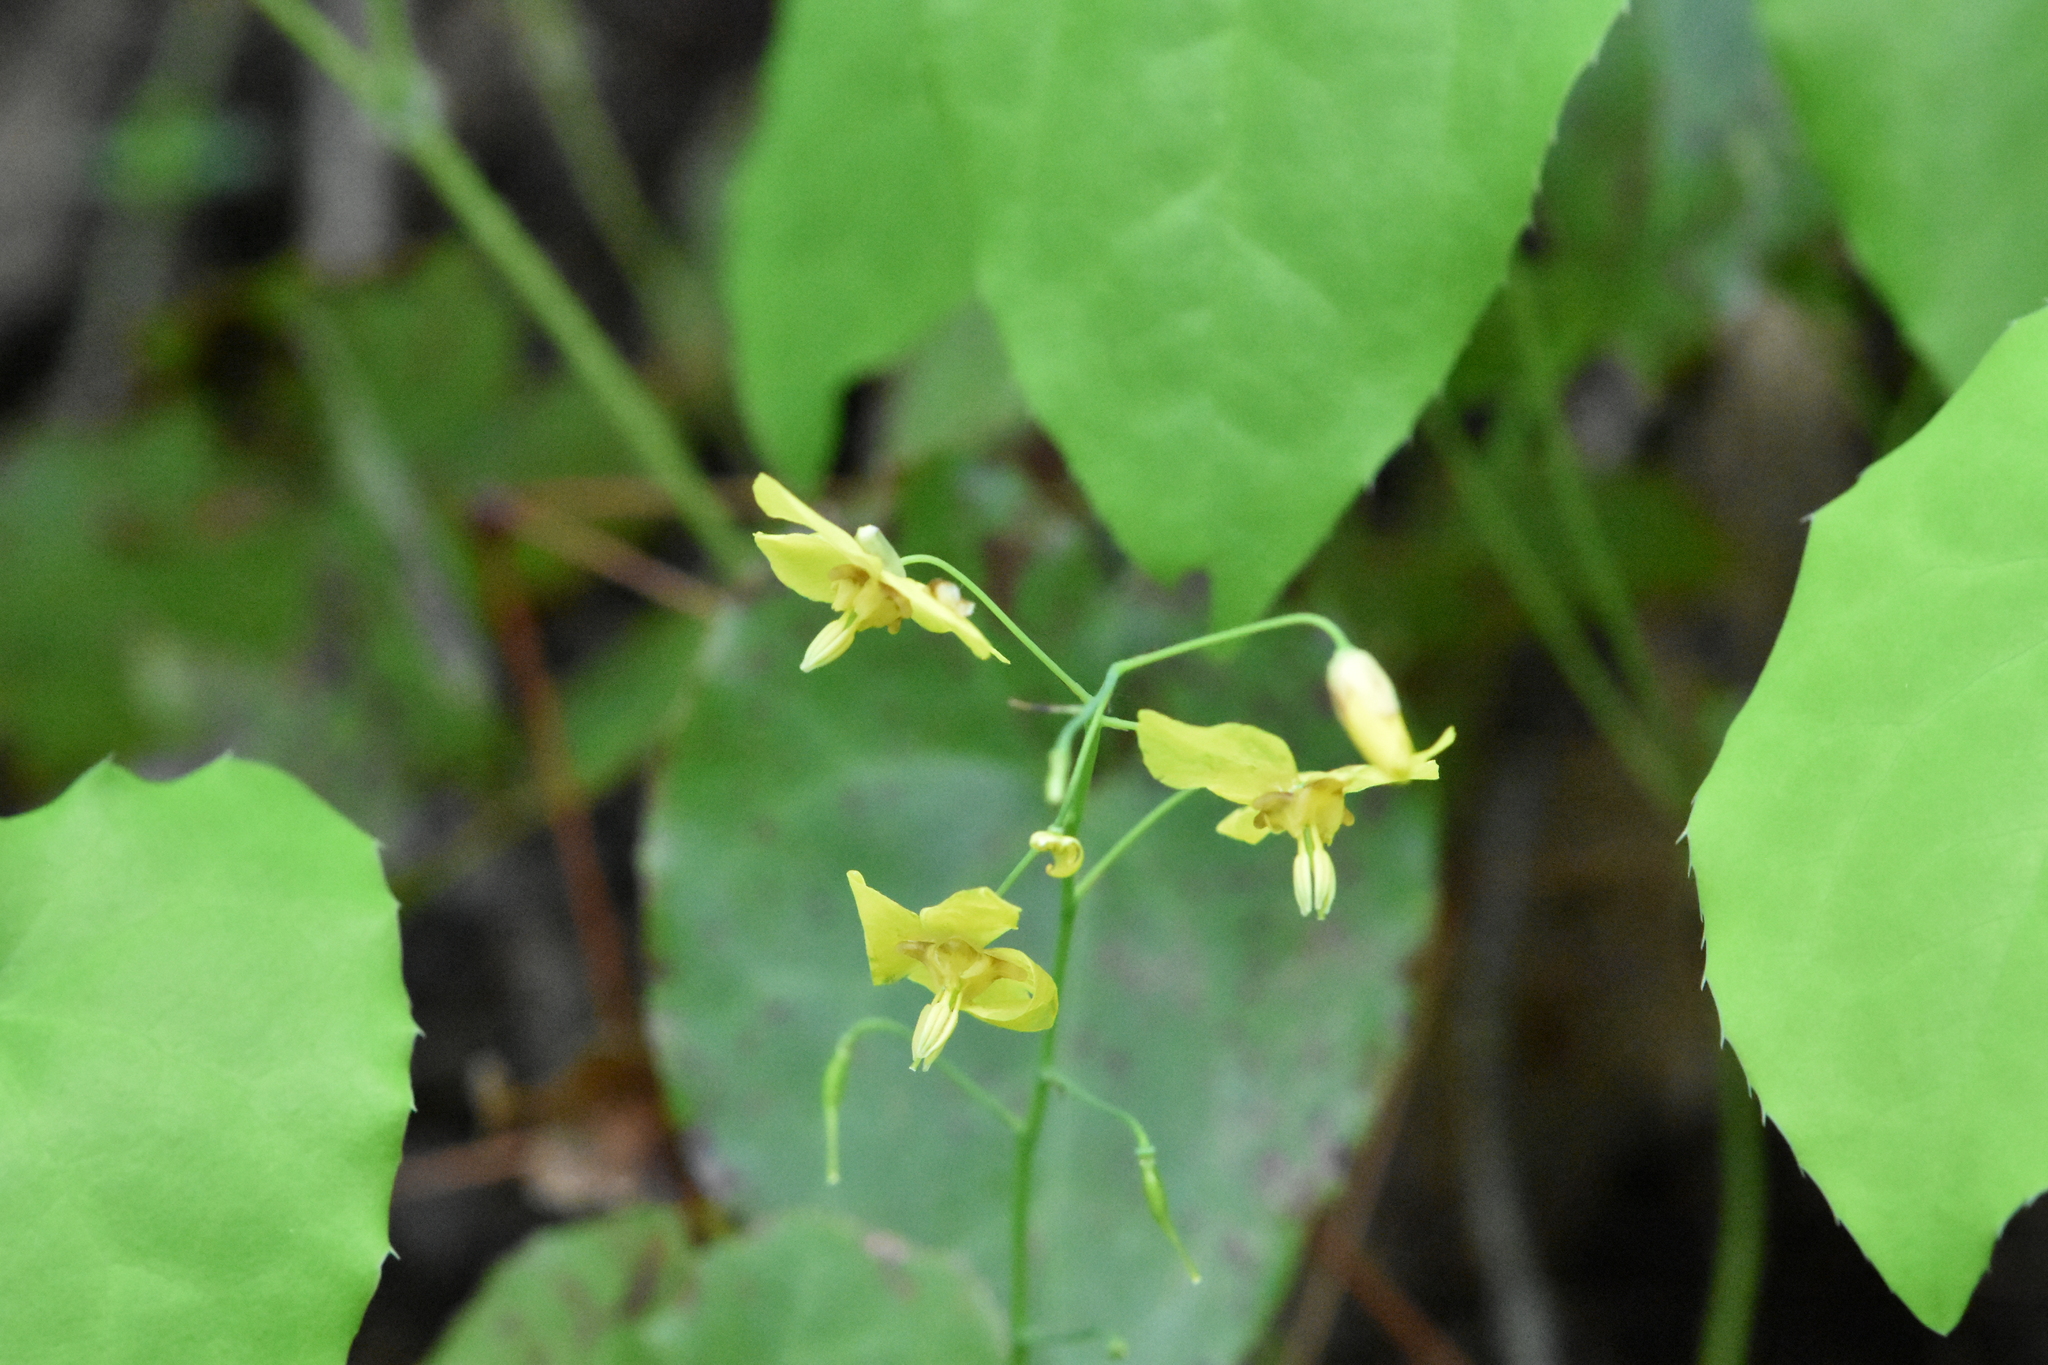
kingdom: Plantae
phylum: Tracheophyta
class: Magnoliopsida
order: Ranunculales
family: Berberidaceae
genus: Epimedium
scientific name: Epimedium pinnatum
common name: Caucasian barrenwort
